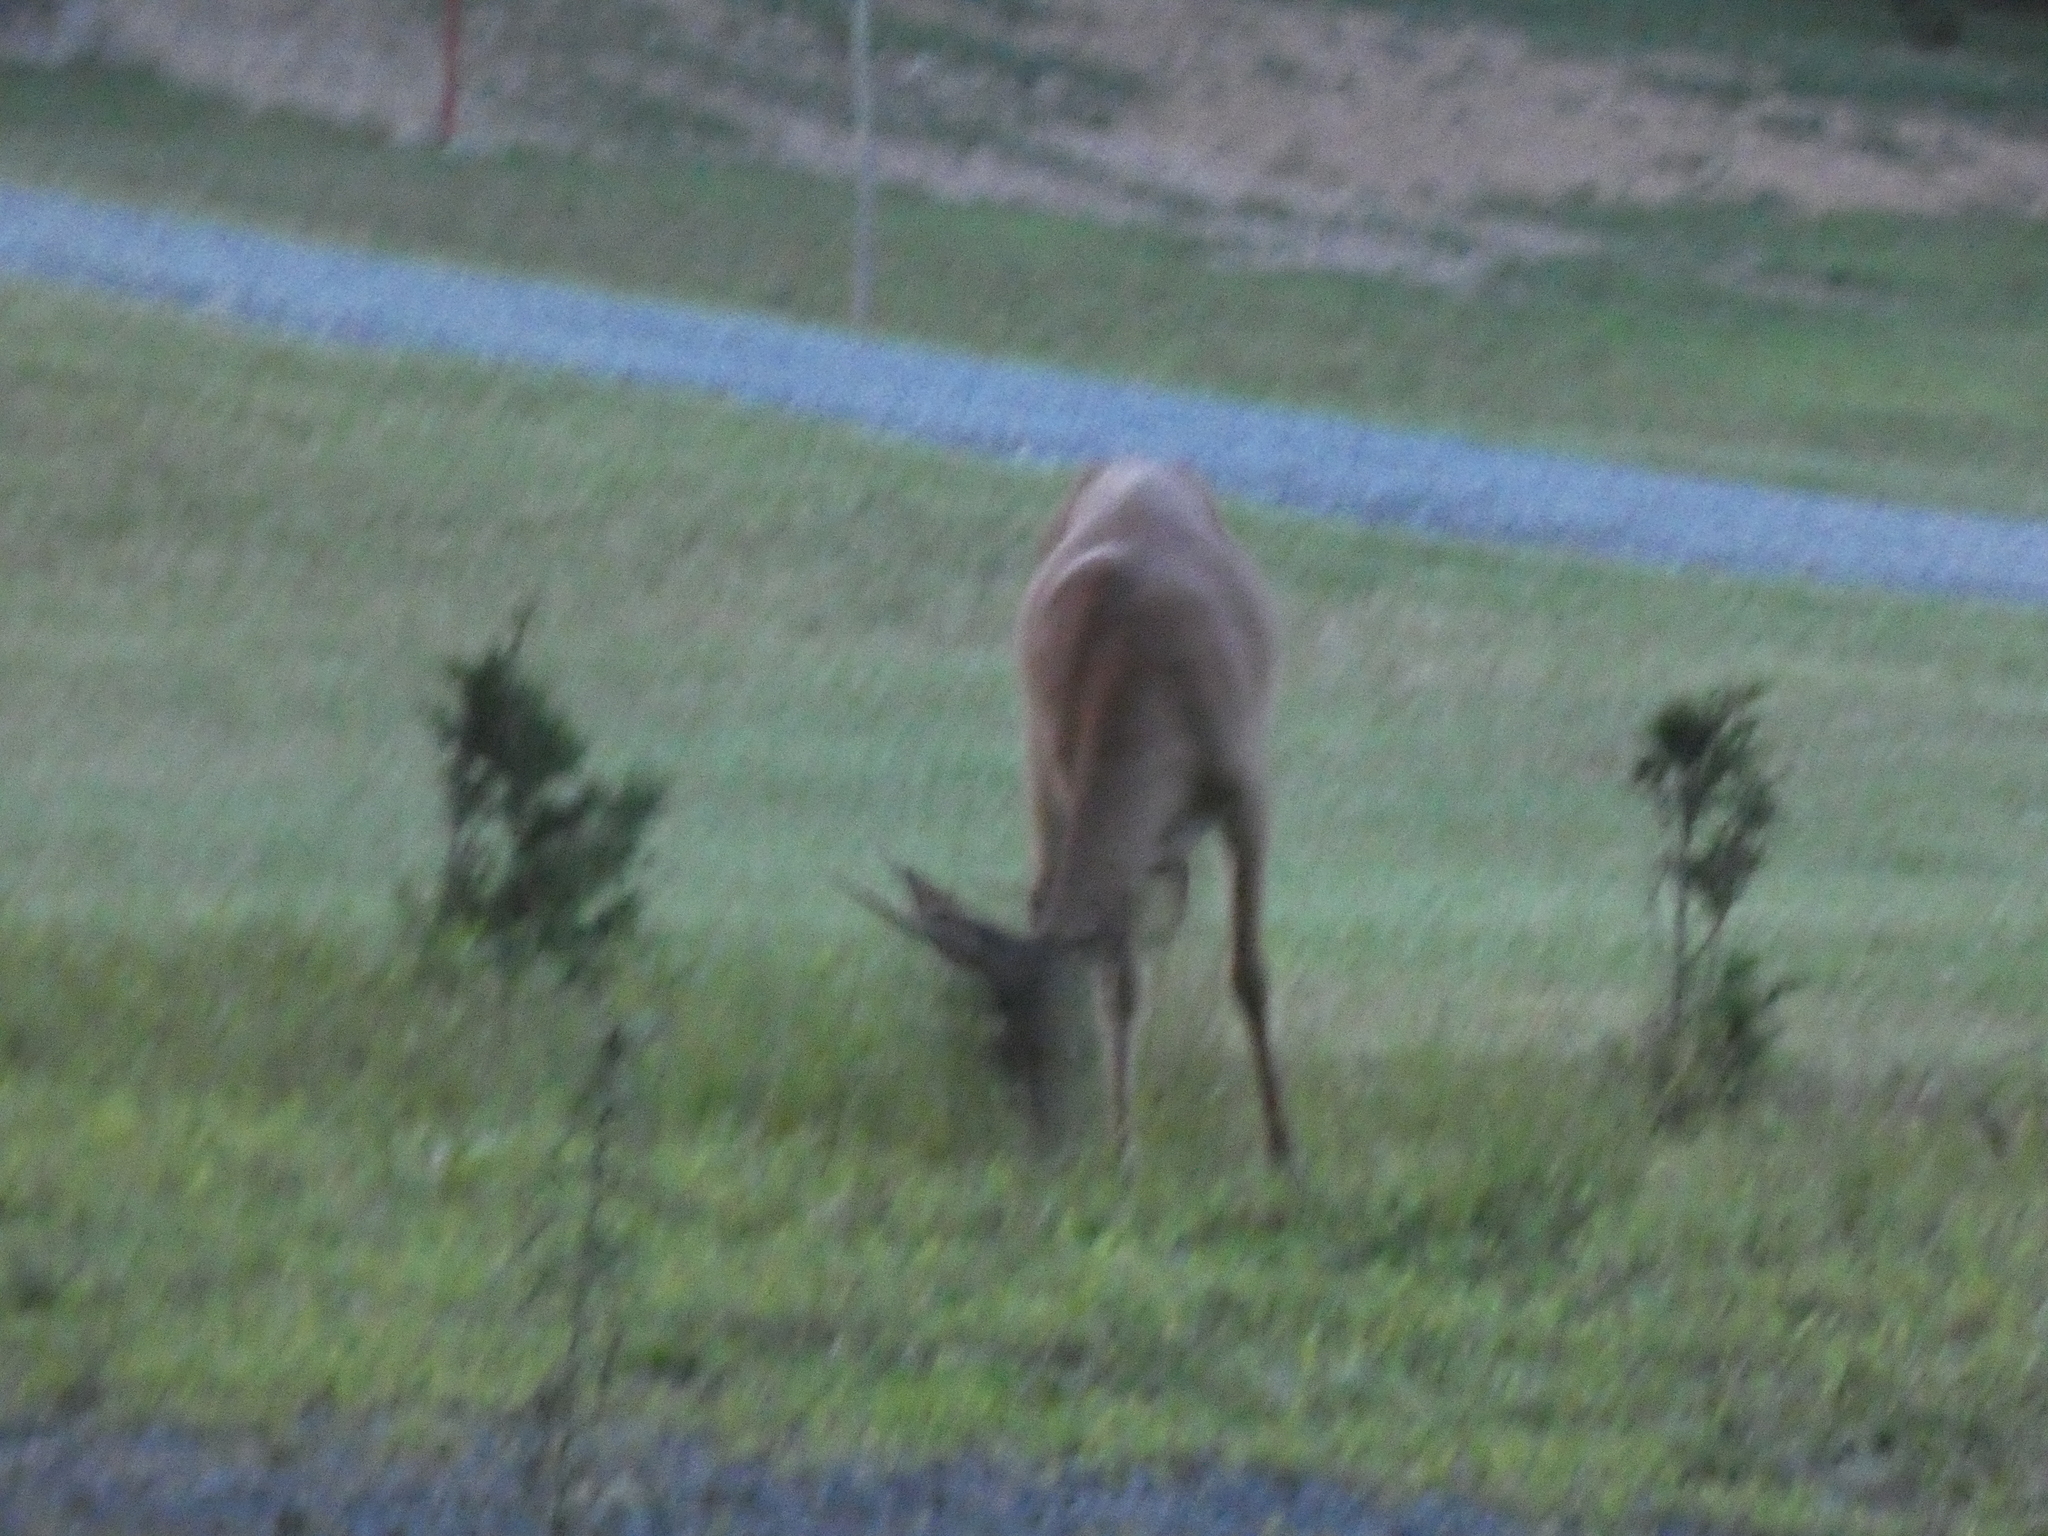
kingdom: Animalia
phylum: Chordata
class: Mammalia
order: Artiodactyla
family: Cervidae
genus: Odocoileus
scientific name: Odocoileus virginianus
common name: White-tailed deer
